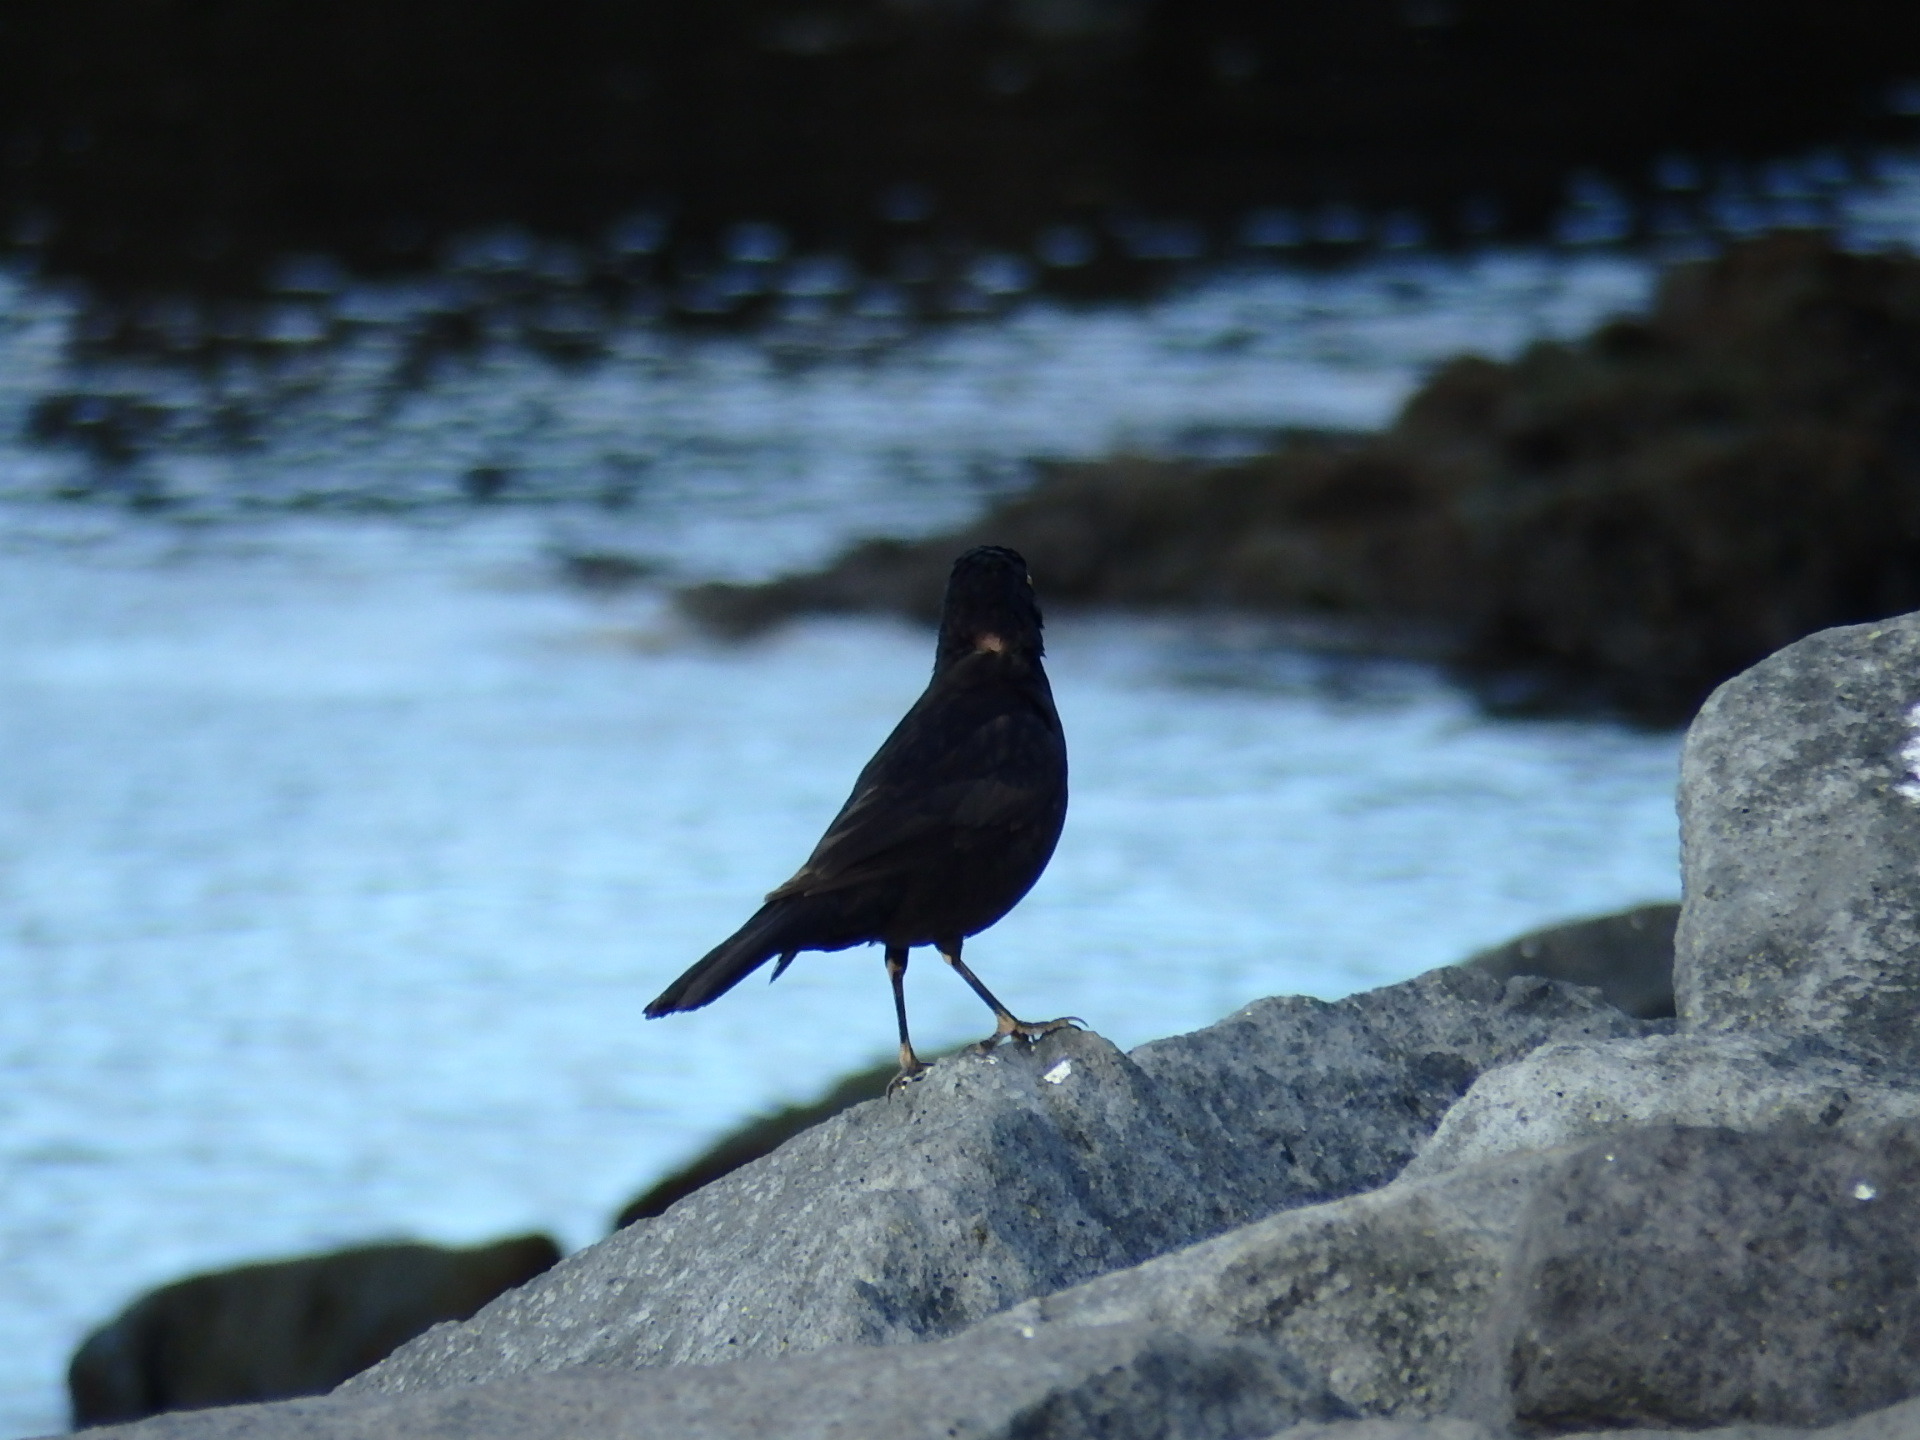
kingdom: Animalia
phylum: Chordata
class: Aves
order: Passeriformes
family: Turdidae
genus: Turdus
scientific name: Turdus merula
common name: Common blackbird
